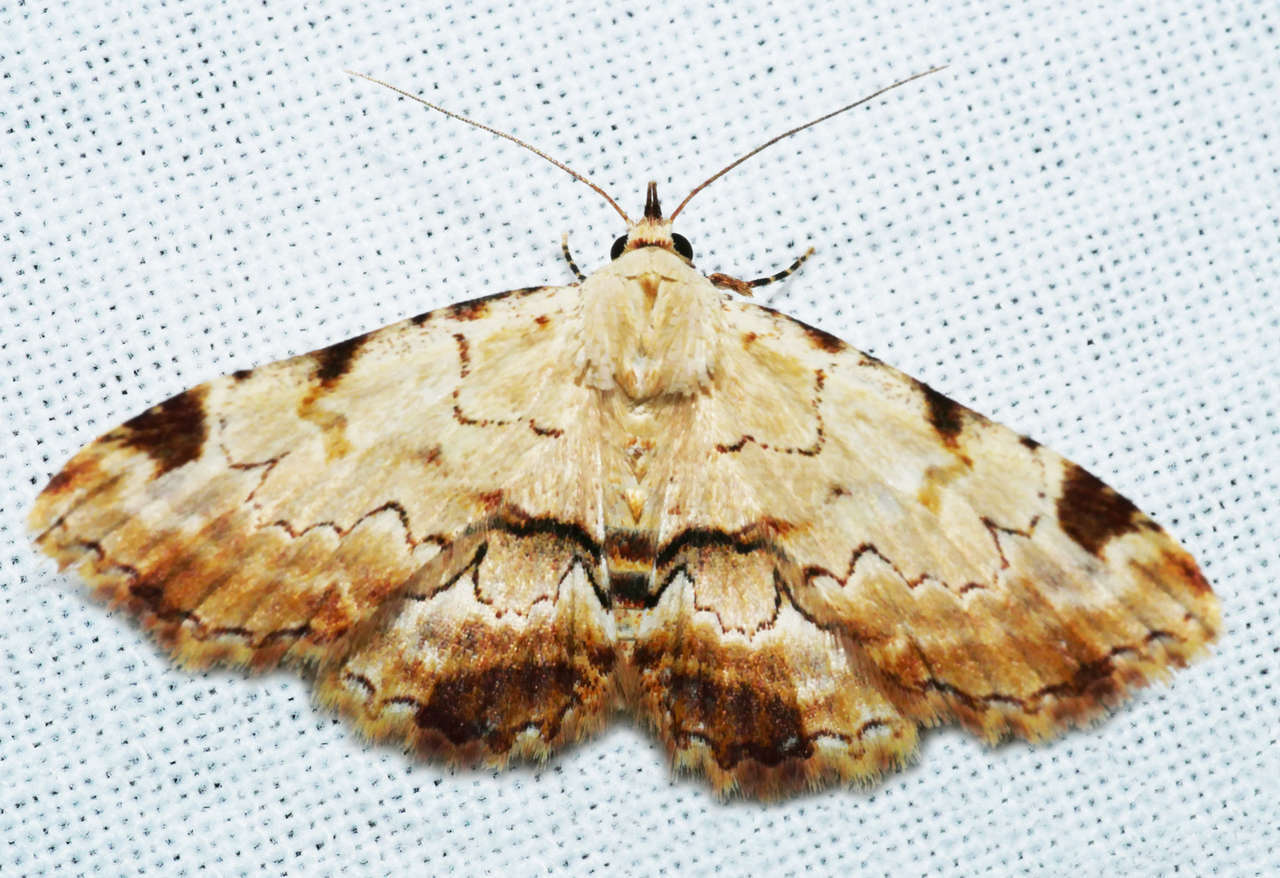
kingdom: Animalia
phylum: Arthropoda
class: Insecta
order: Lepidoptera
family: Erebidae
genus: Sandava
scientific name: Sandava xylistis
